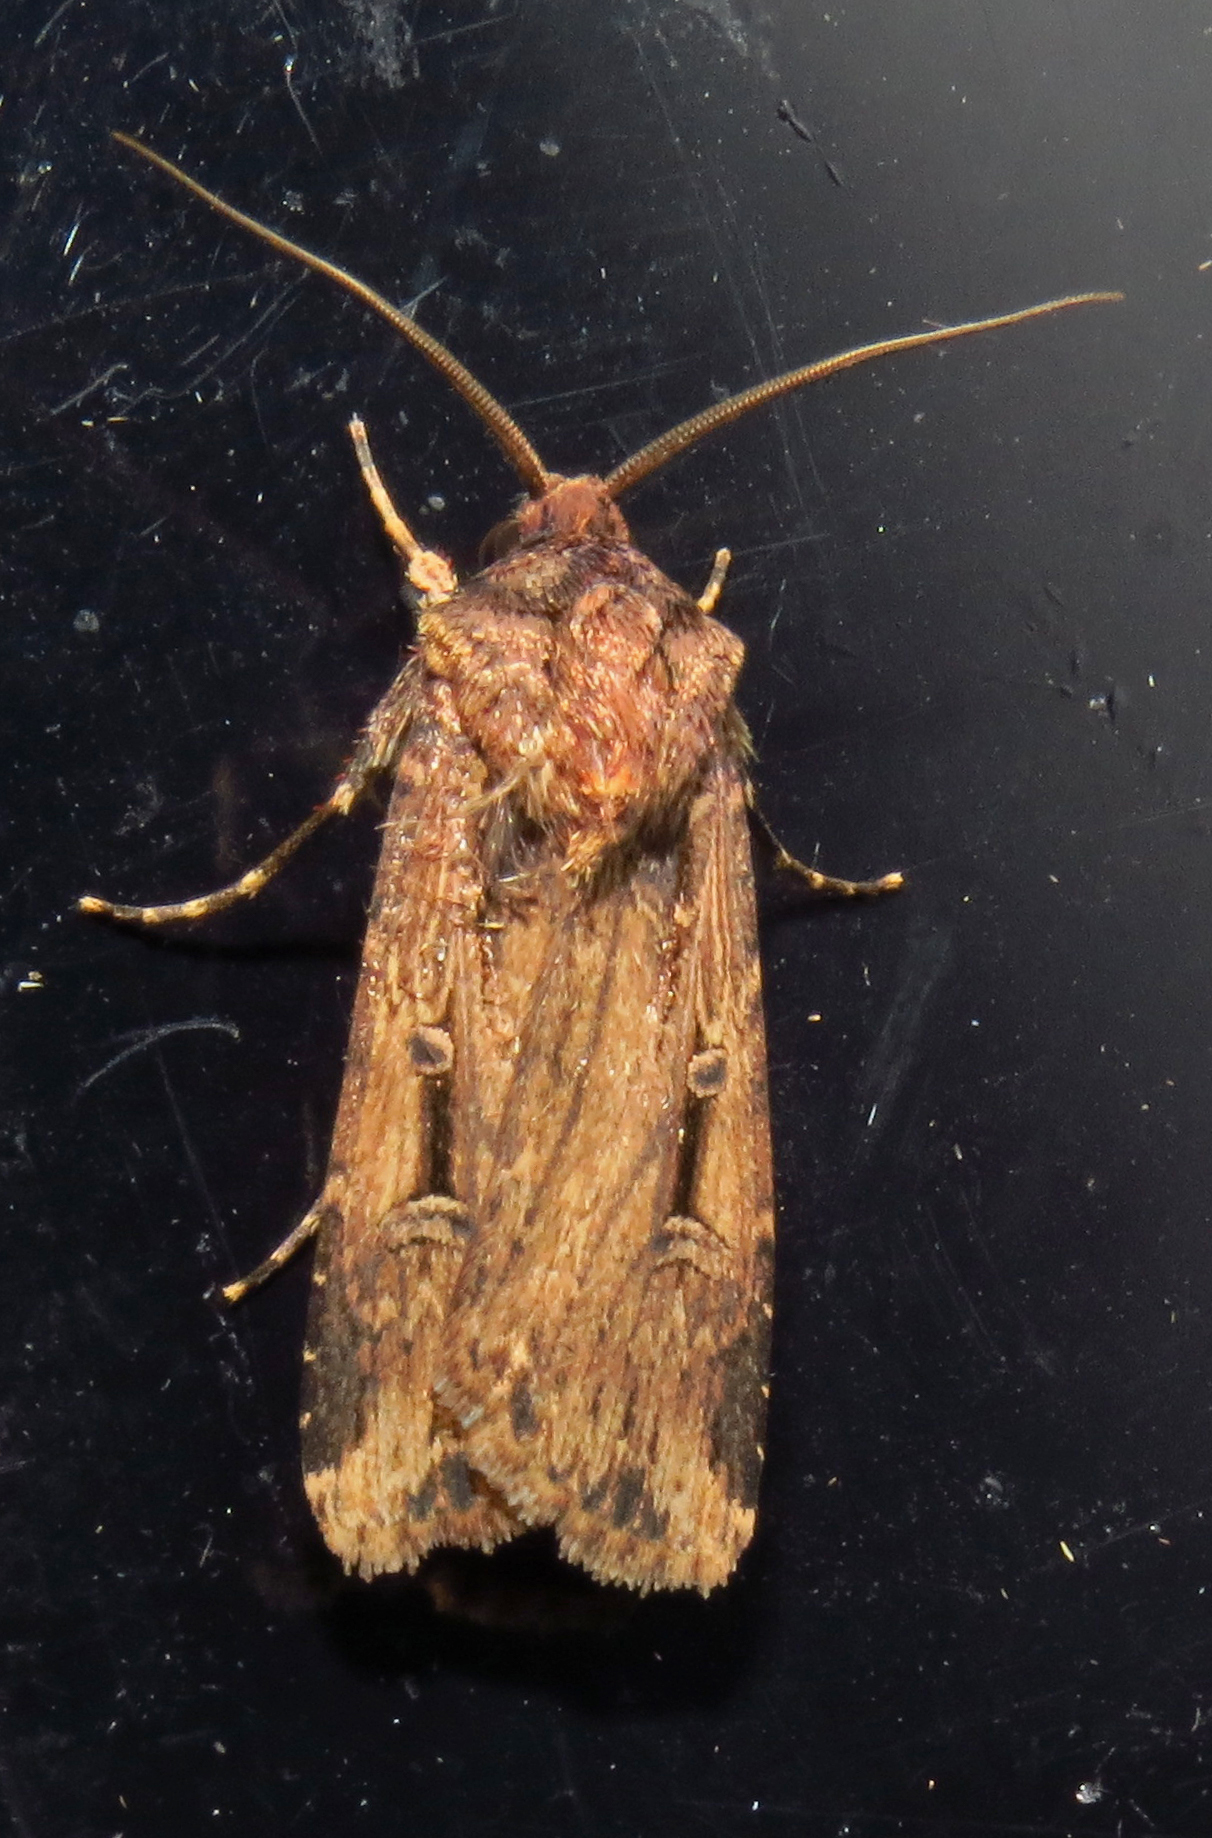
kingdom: Animalia
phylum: Arthropoda
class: Insecta
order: Lepidoptera
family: Noctuidae
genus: Feltia
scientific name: Feltia subterranea
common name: Granulate cutworm
